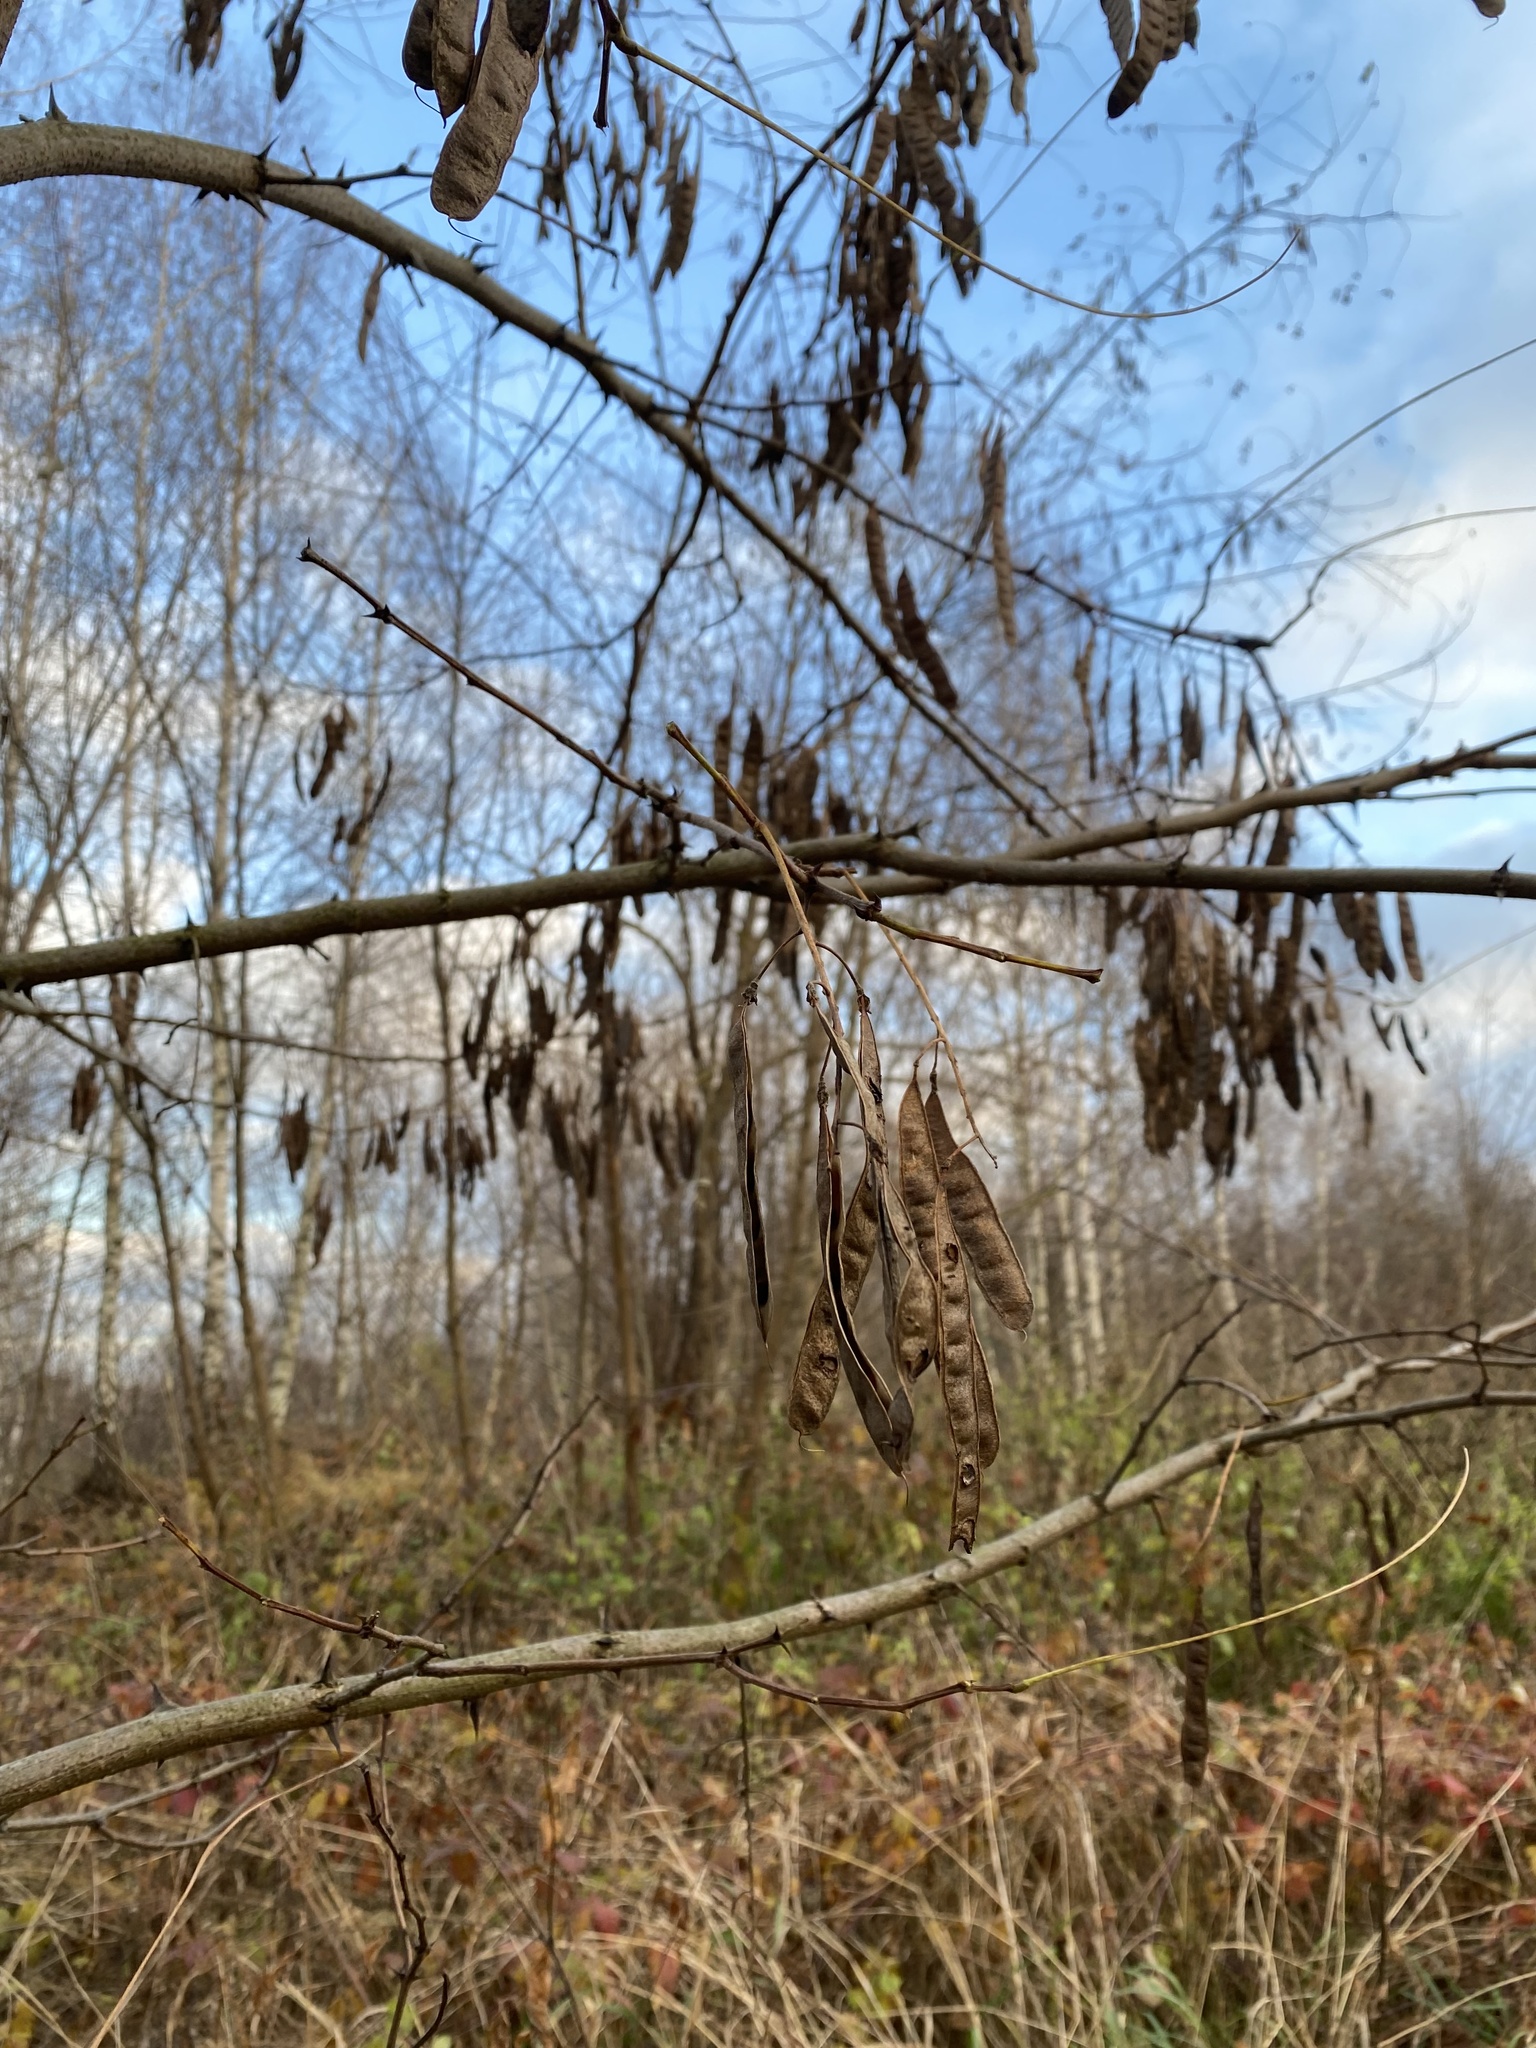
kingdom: Plantae
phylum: Tracheophyta
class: Magnoliopsida
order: Fabales
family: Fabaceae
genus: Robinia
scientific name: Robinia pseudoacacia
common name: Black locust
